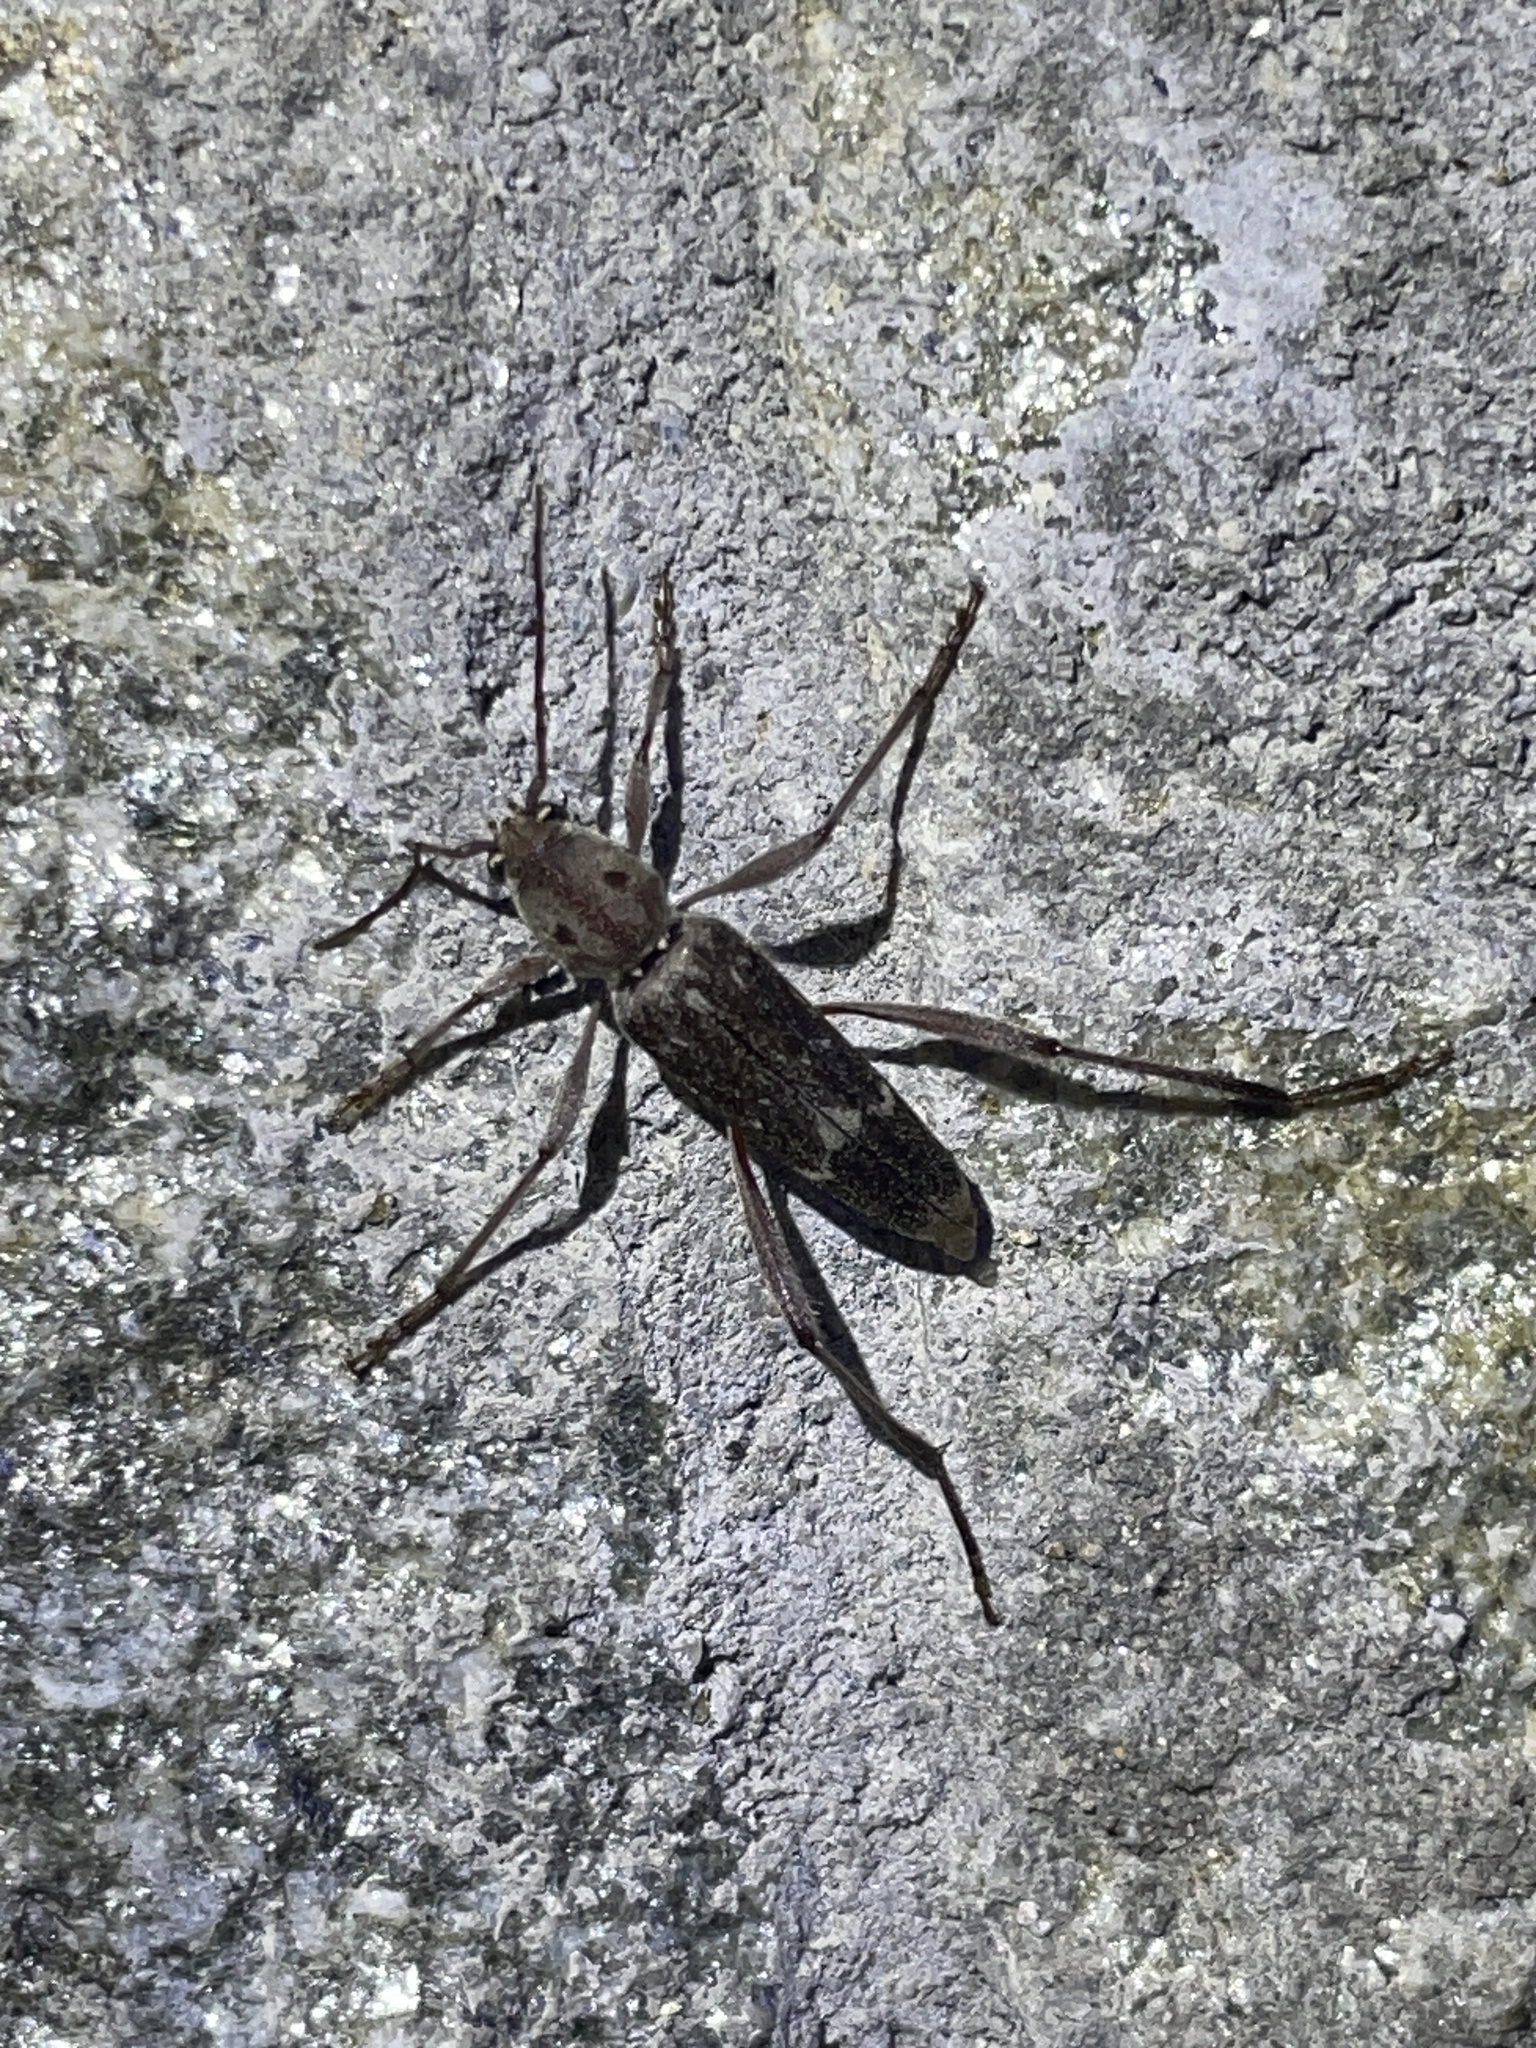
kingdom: Animalia
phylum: Arthropoda
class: Insecta
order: Coleoptera
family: Cerambycidae
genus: Xylotrechus
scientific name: Xylotrechus smei
